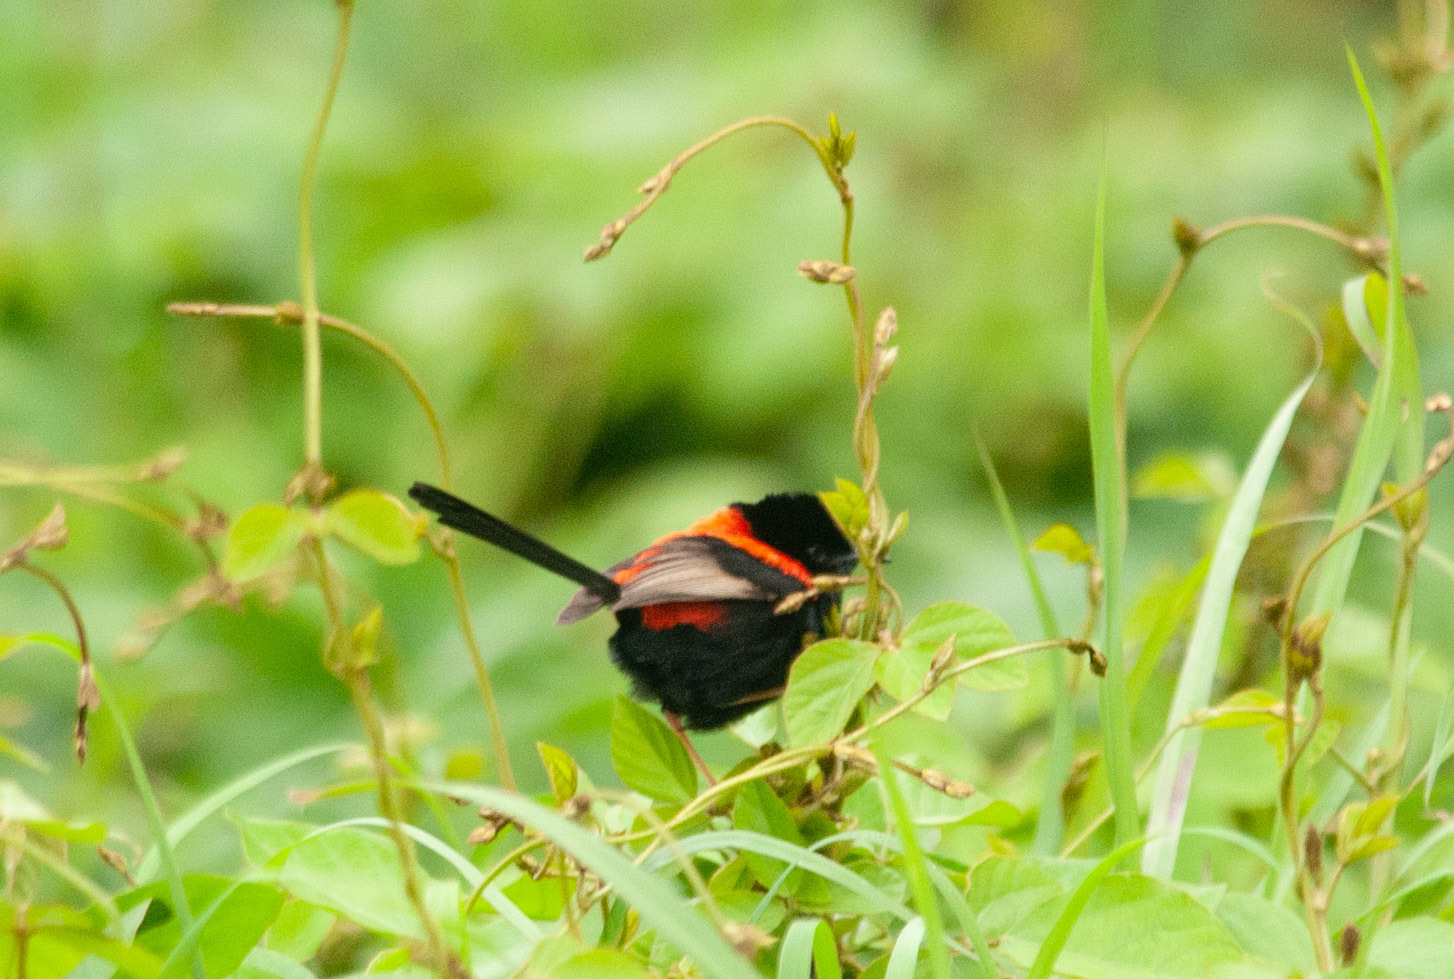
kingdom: Animalia
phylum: Chordata
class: Aves
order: Passeriformes
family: Maluridae
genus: Malurus
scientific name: Malurus melanocephalus
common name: Red-backed fairywren
